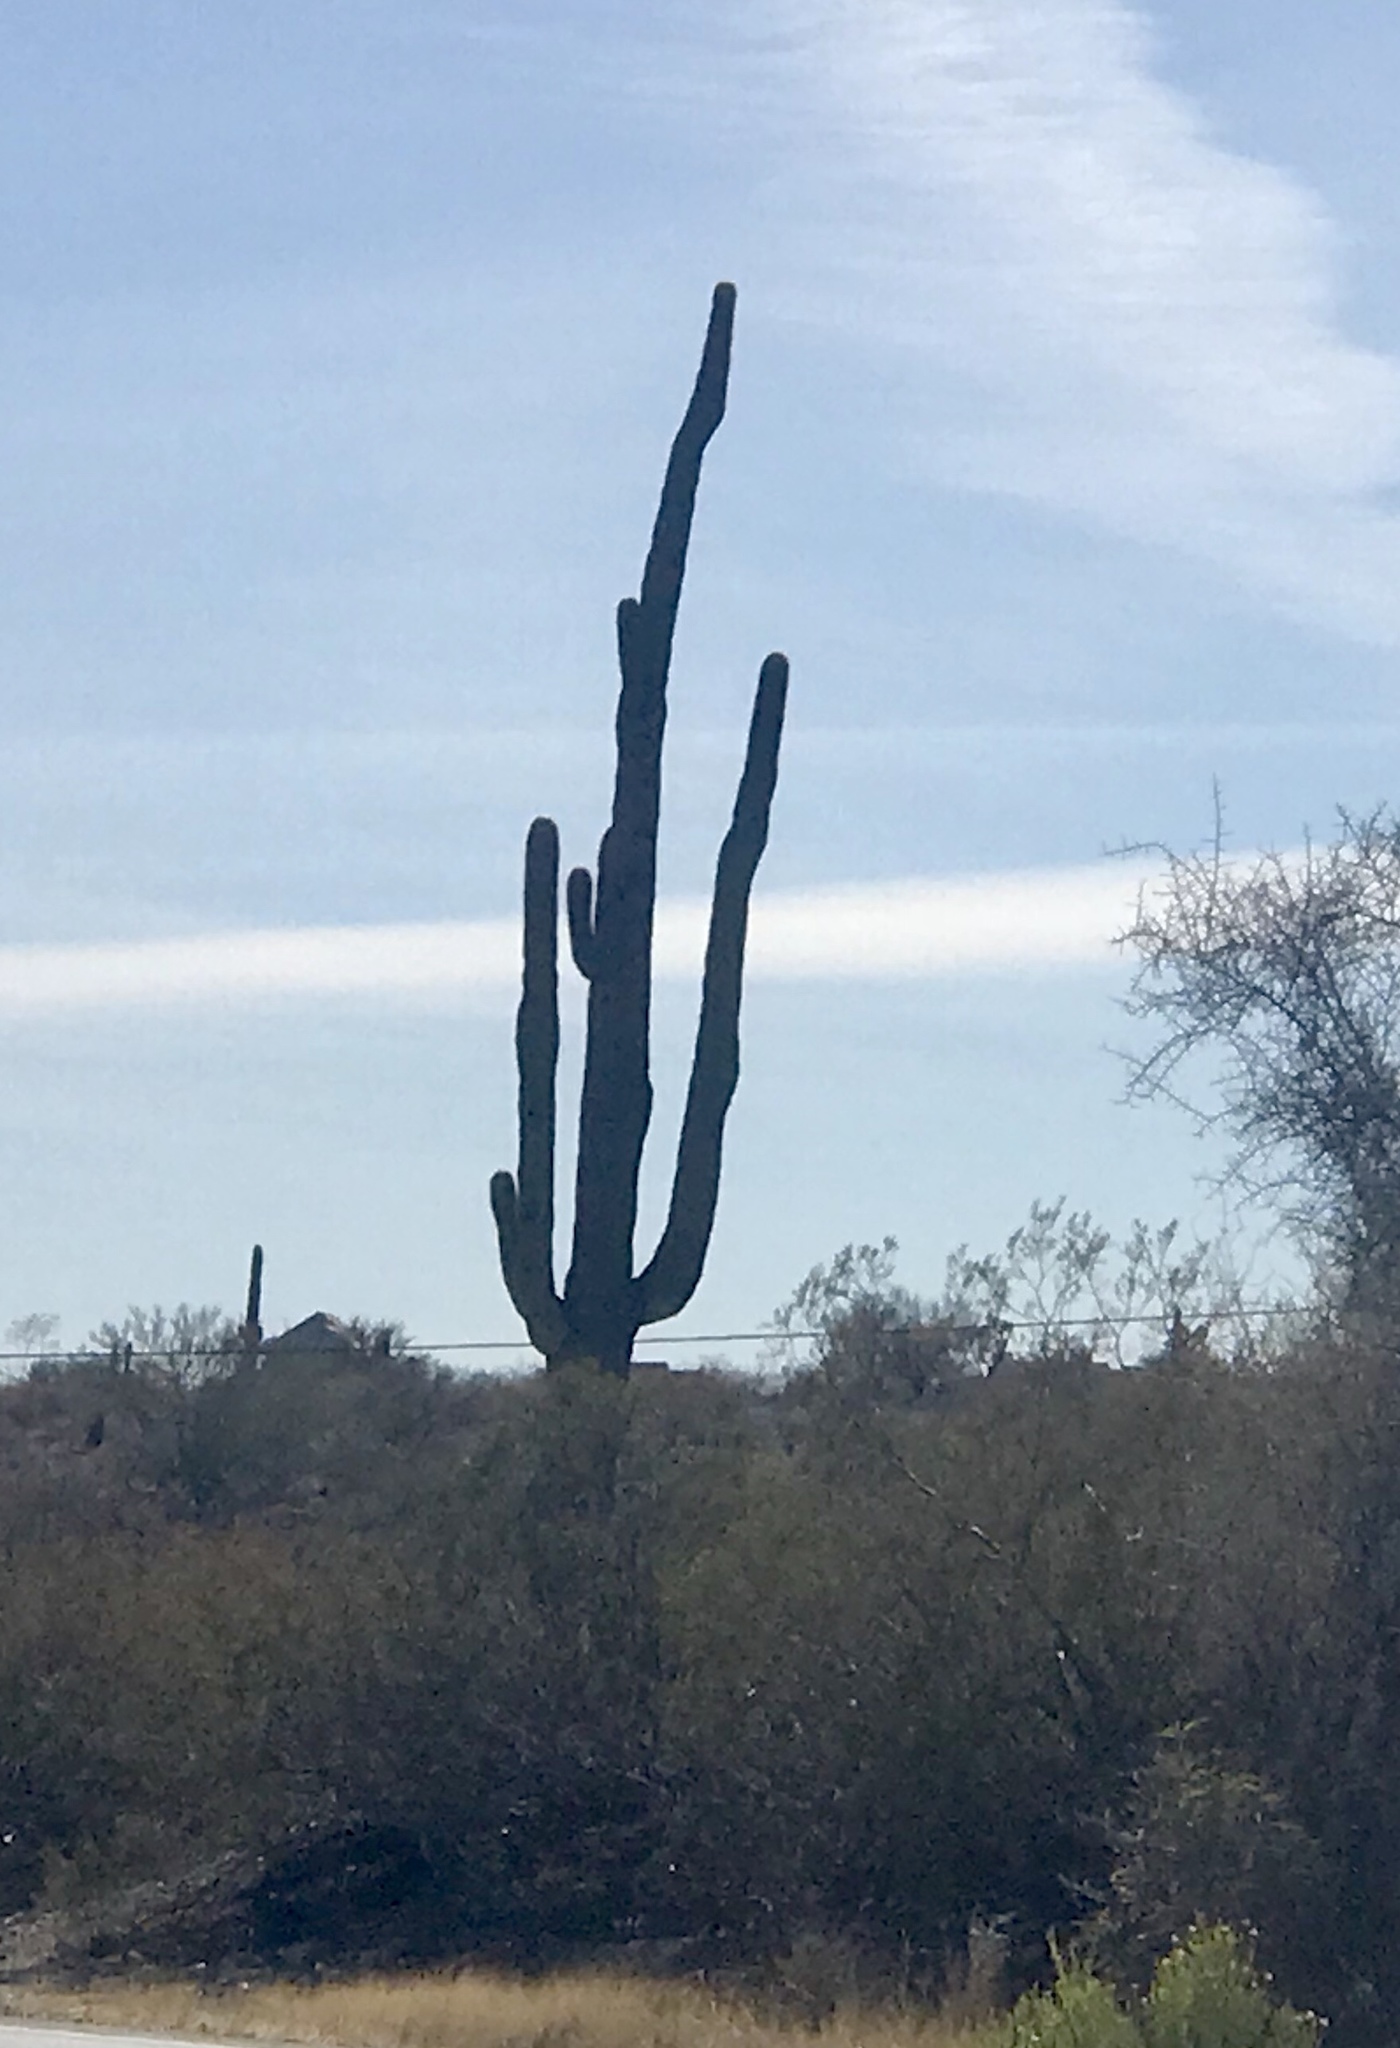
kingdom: Plantae
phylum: Tracheophyta
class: Magnoliopsida
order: Caryophyllales
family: Cactaceae
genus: Carnegiea
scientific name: Carnegiea gigantea
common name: Saguaro
